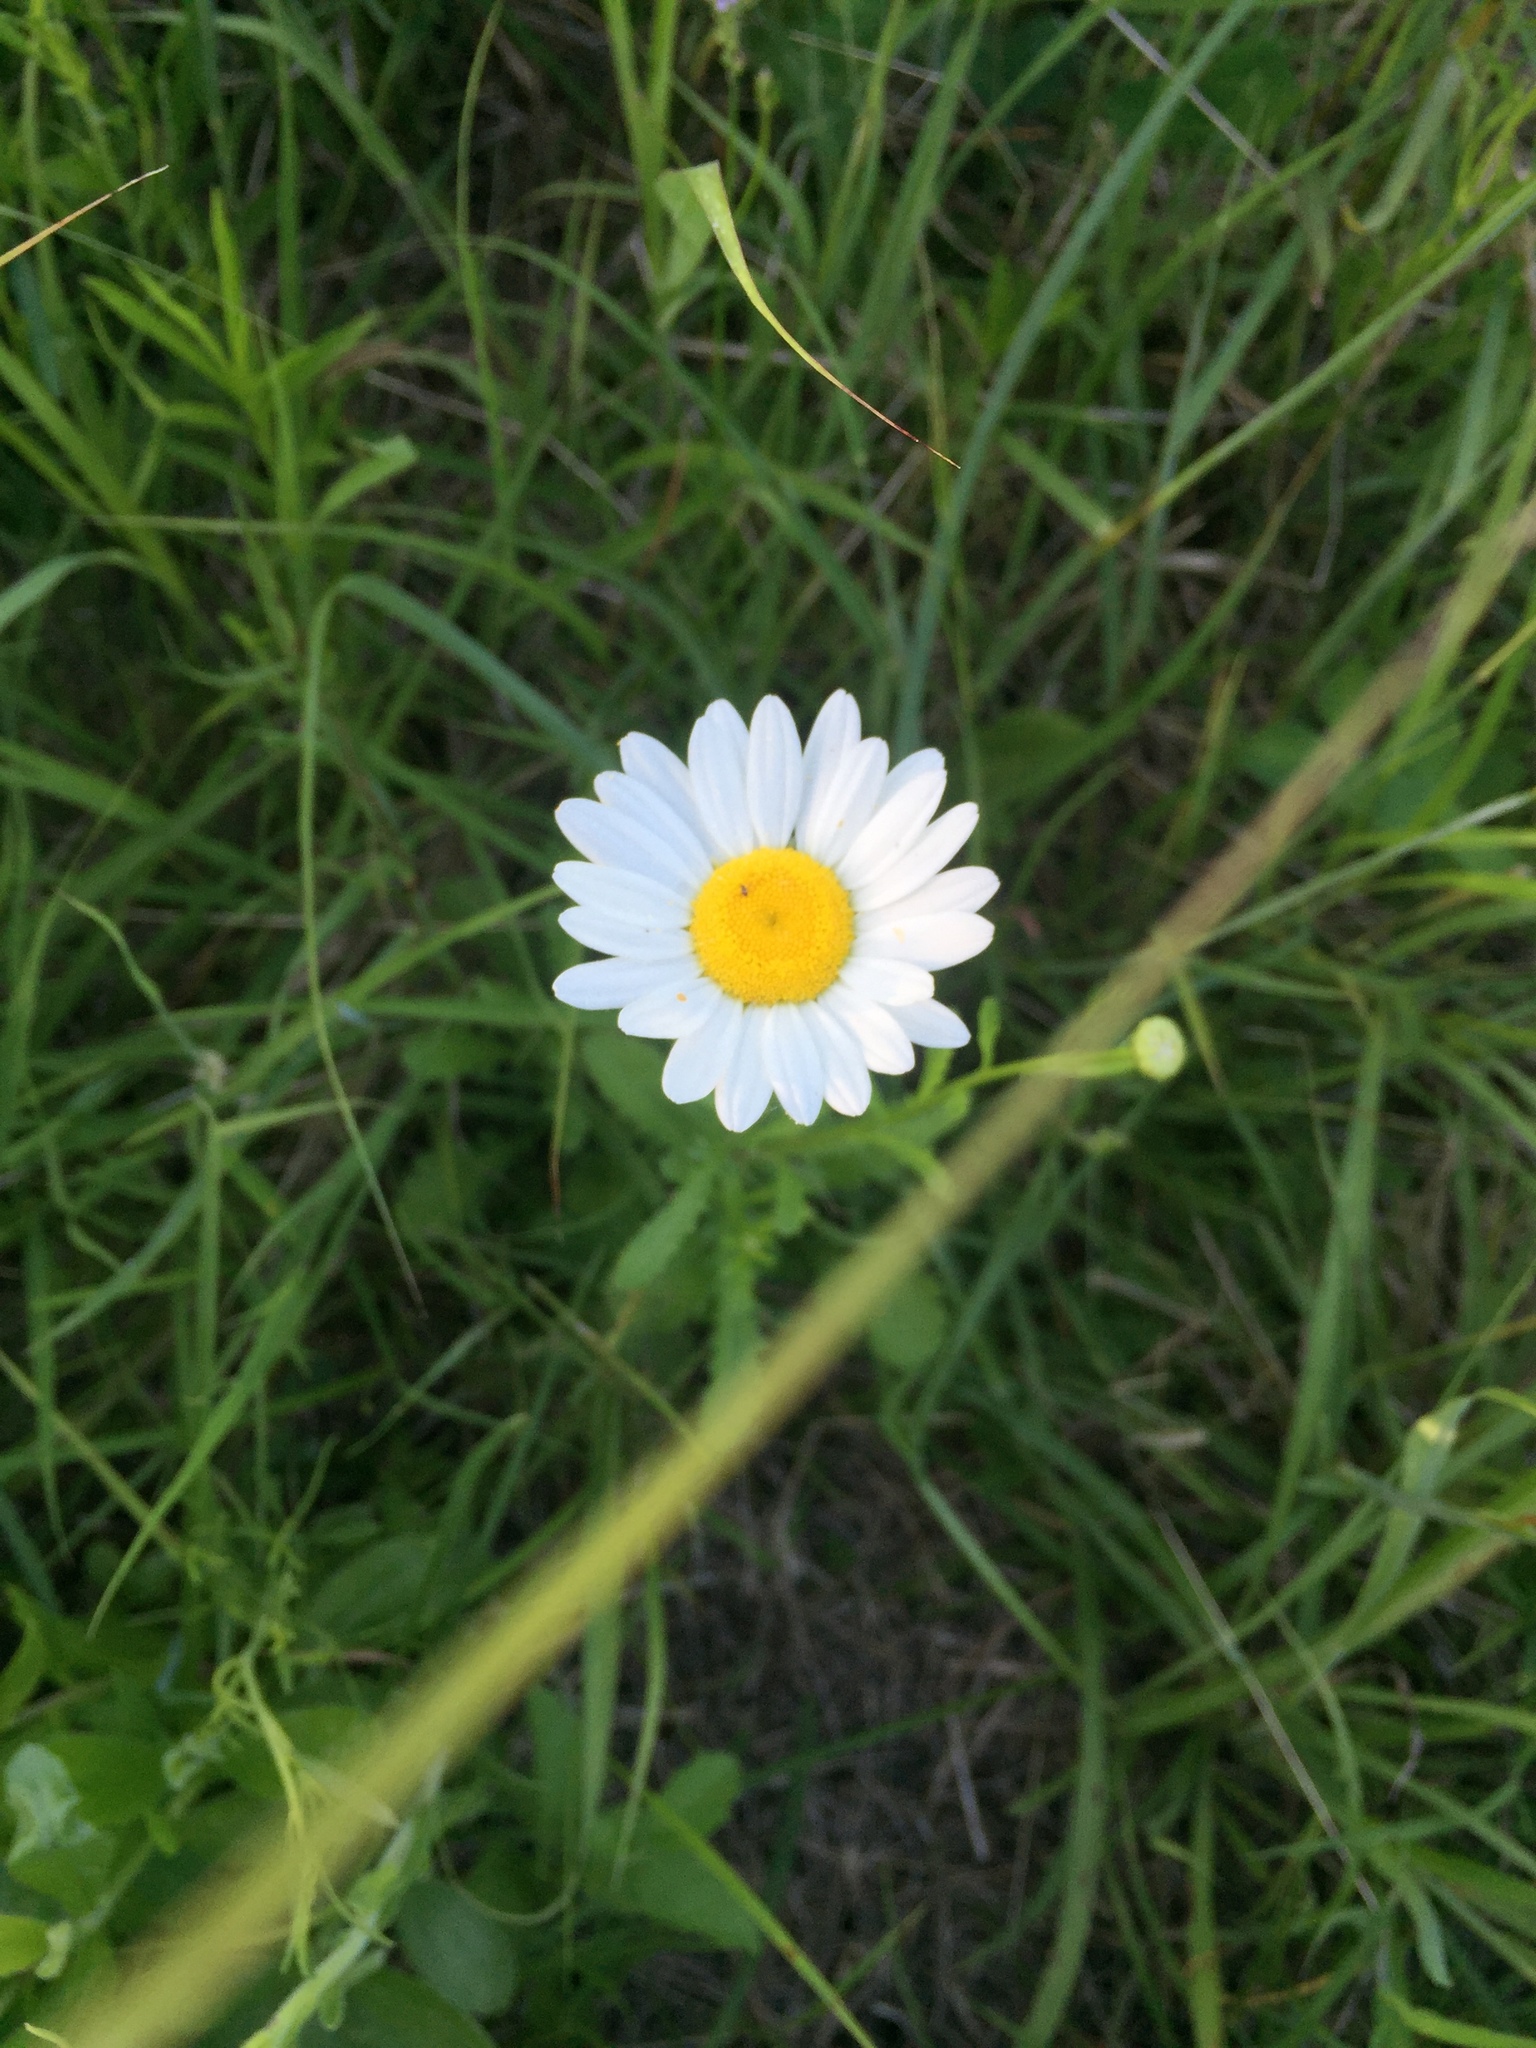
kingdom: Plantae
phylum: Tracheophyta
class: Magnoliopsida
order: Asterales
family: Asteraceae
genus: Leucanthemum
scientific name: Leucanthemum vulgare
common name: Oxeye daisy
